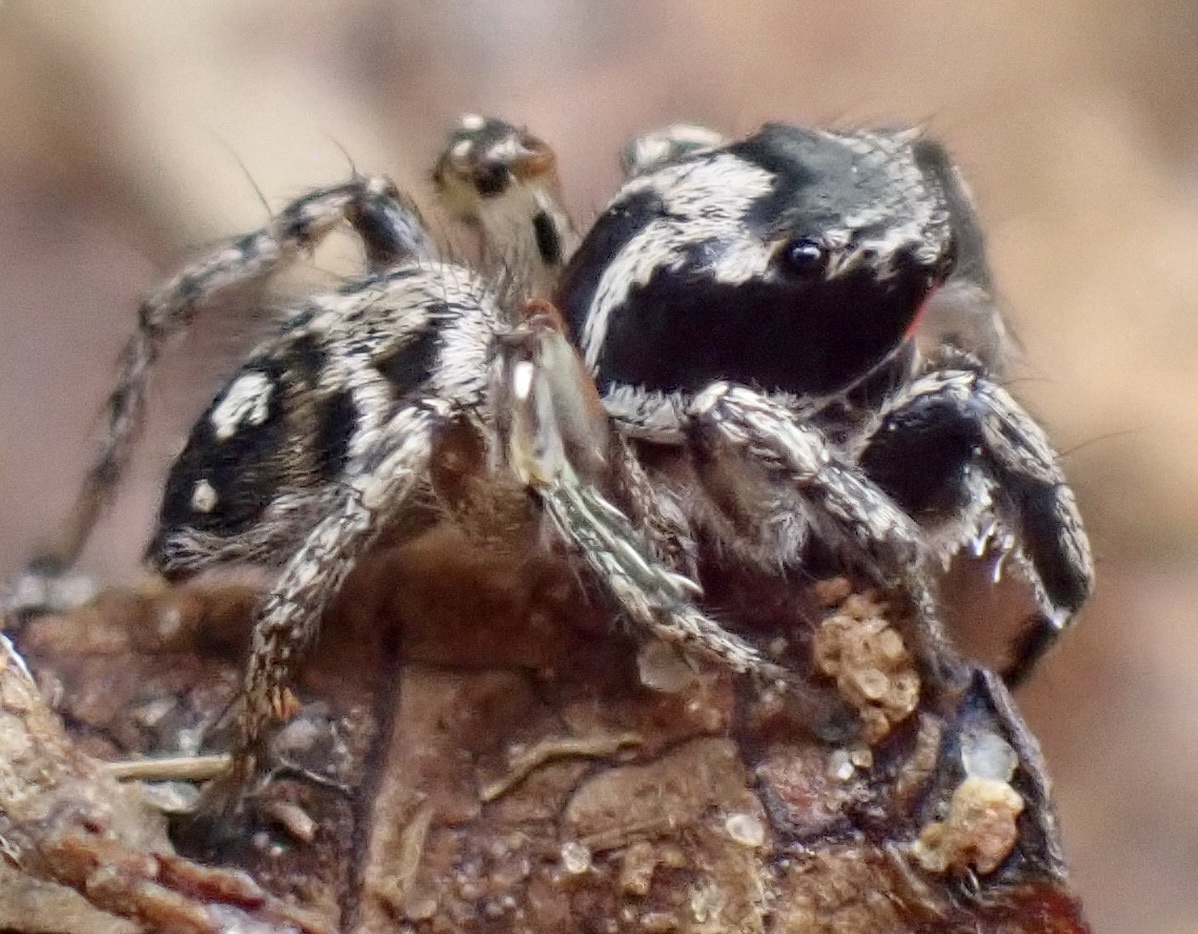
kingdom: Animalia
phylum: Arthropoda
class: Arachnida
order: Araneae
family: Salticidae
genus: Habronattus
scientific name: Habronattus coecatus
